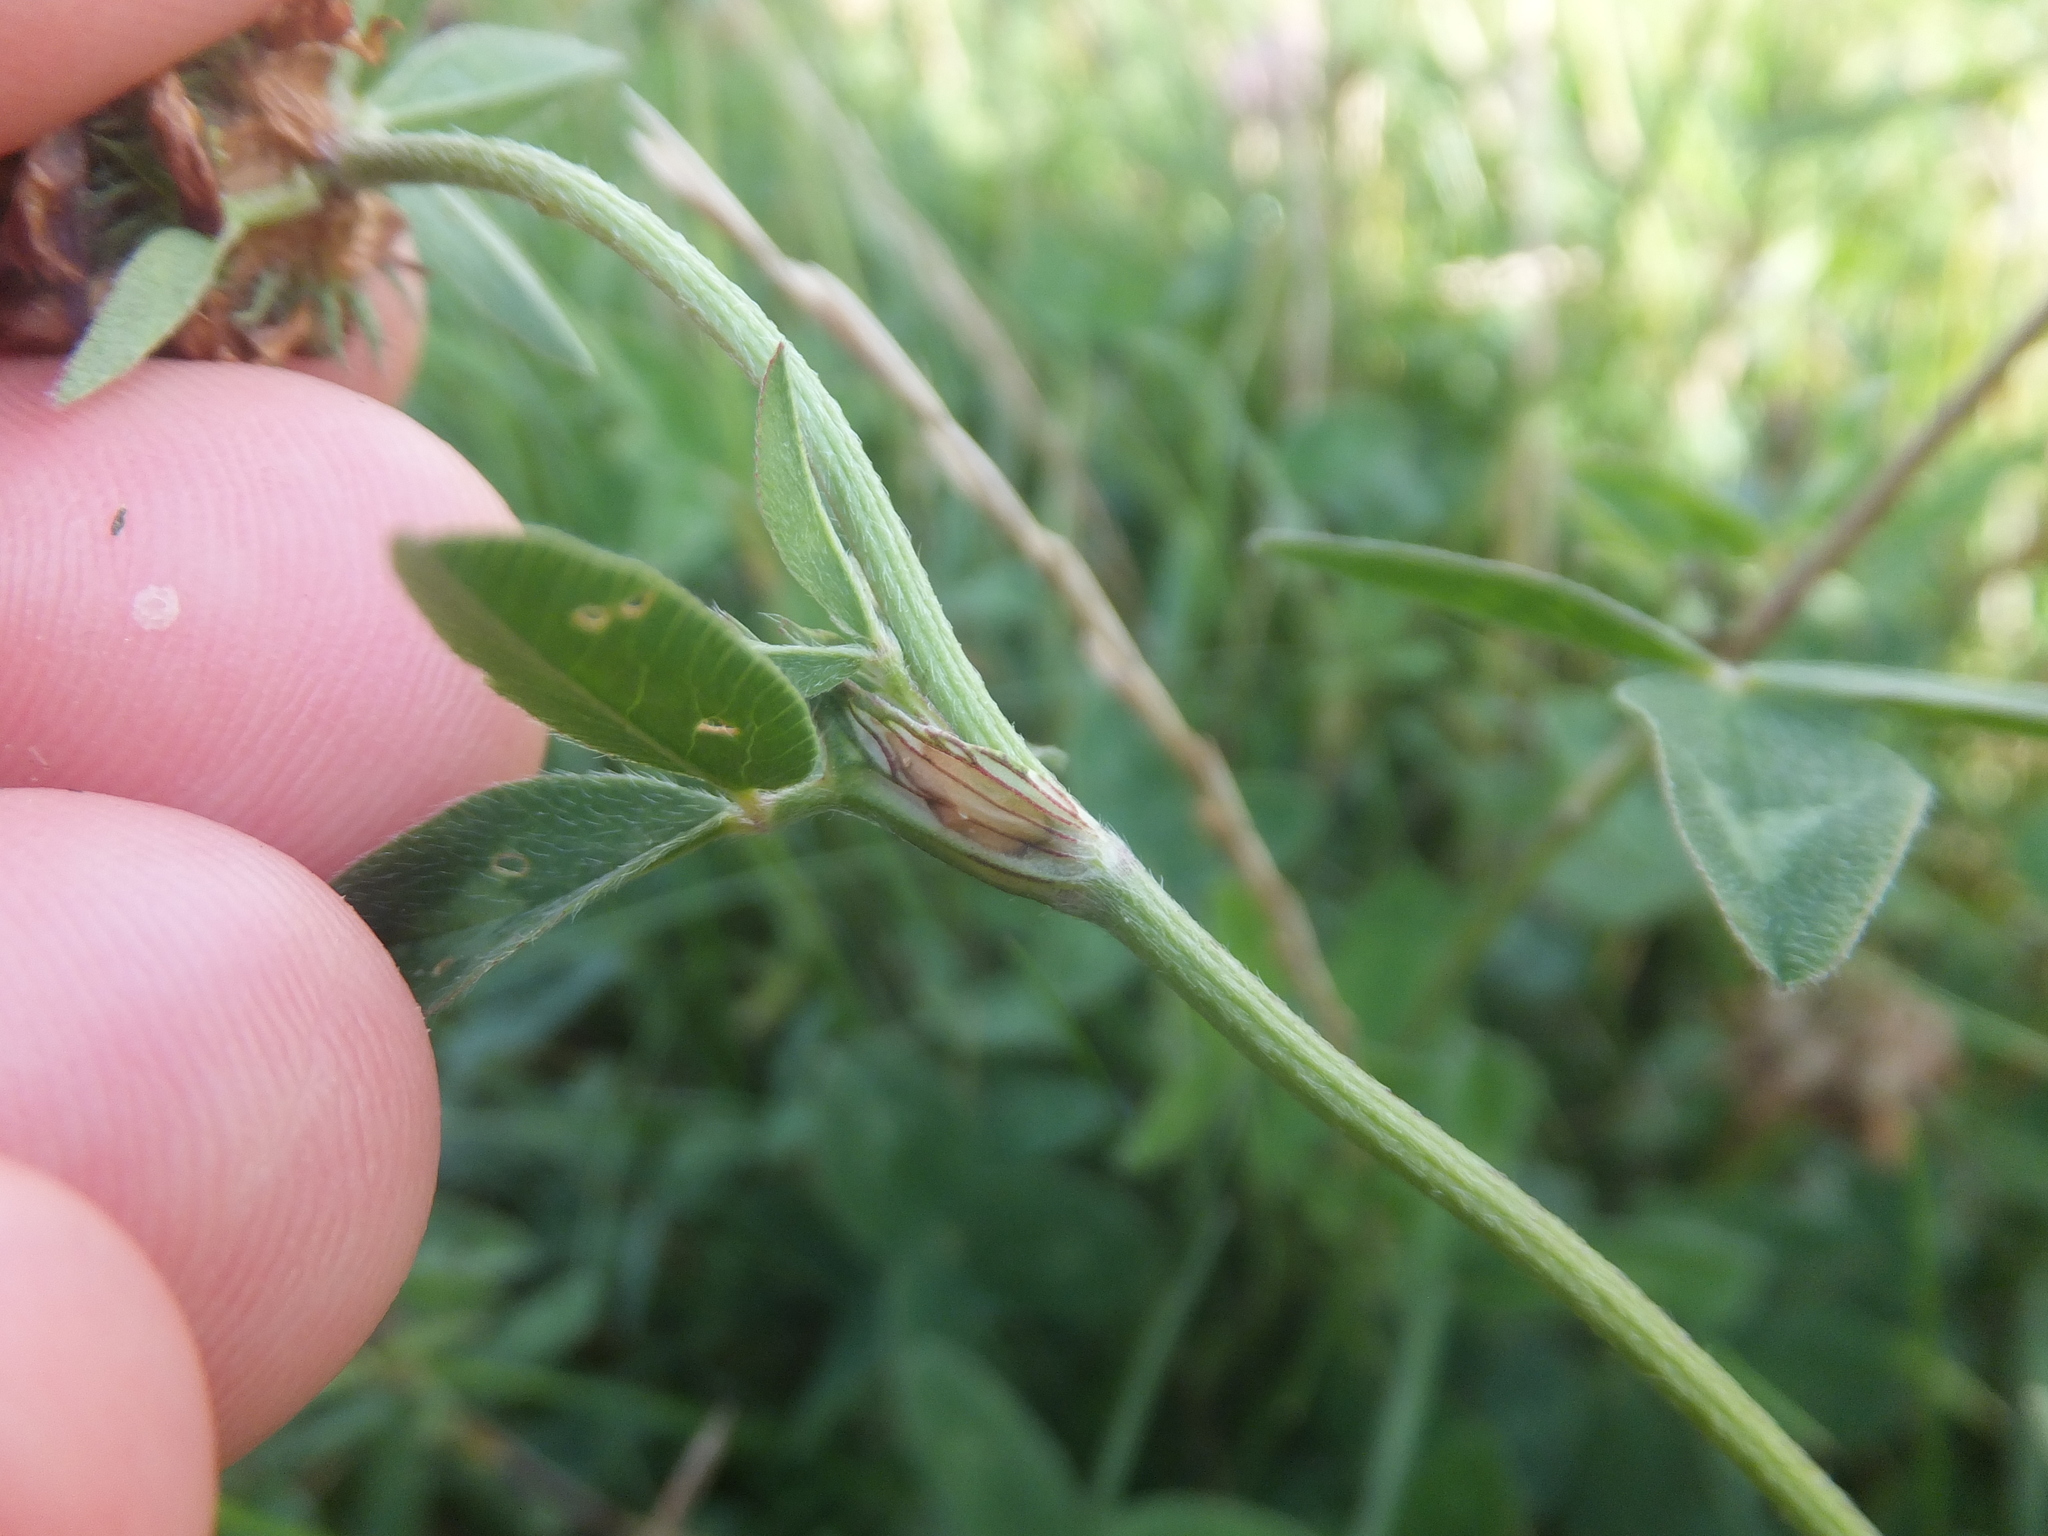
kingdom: Plantae
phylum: Tracheophyta
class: Magnoliopsida
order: Fabales
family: Fabaceae
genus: Trifolium
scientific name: Trifolium pratense
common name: Red clover
